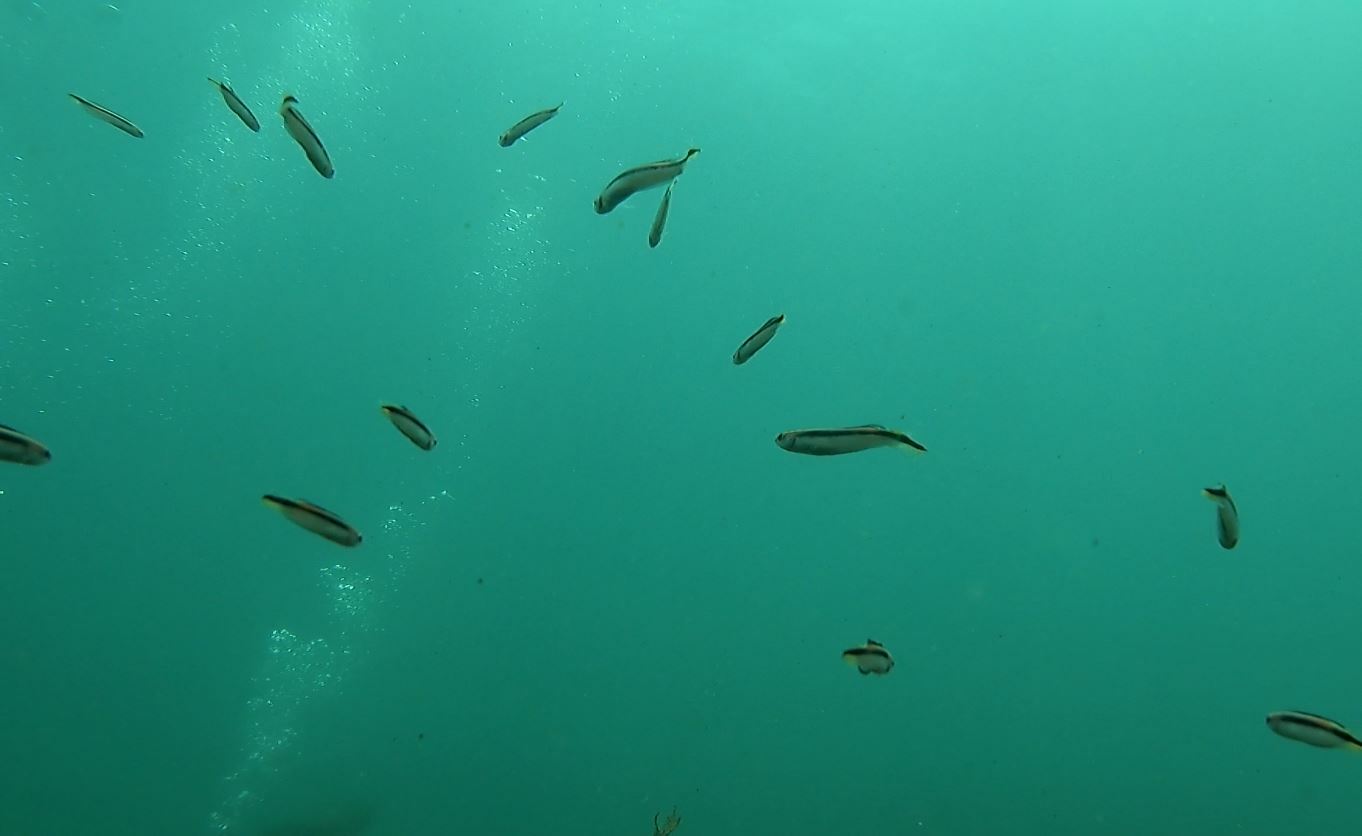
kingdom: Animalia
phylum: Chordata
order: Perciformes
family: Plesiopidae
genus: Trachinops
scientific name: Trachinops taeniatus
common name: Eastern hulafish
